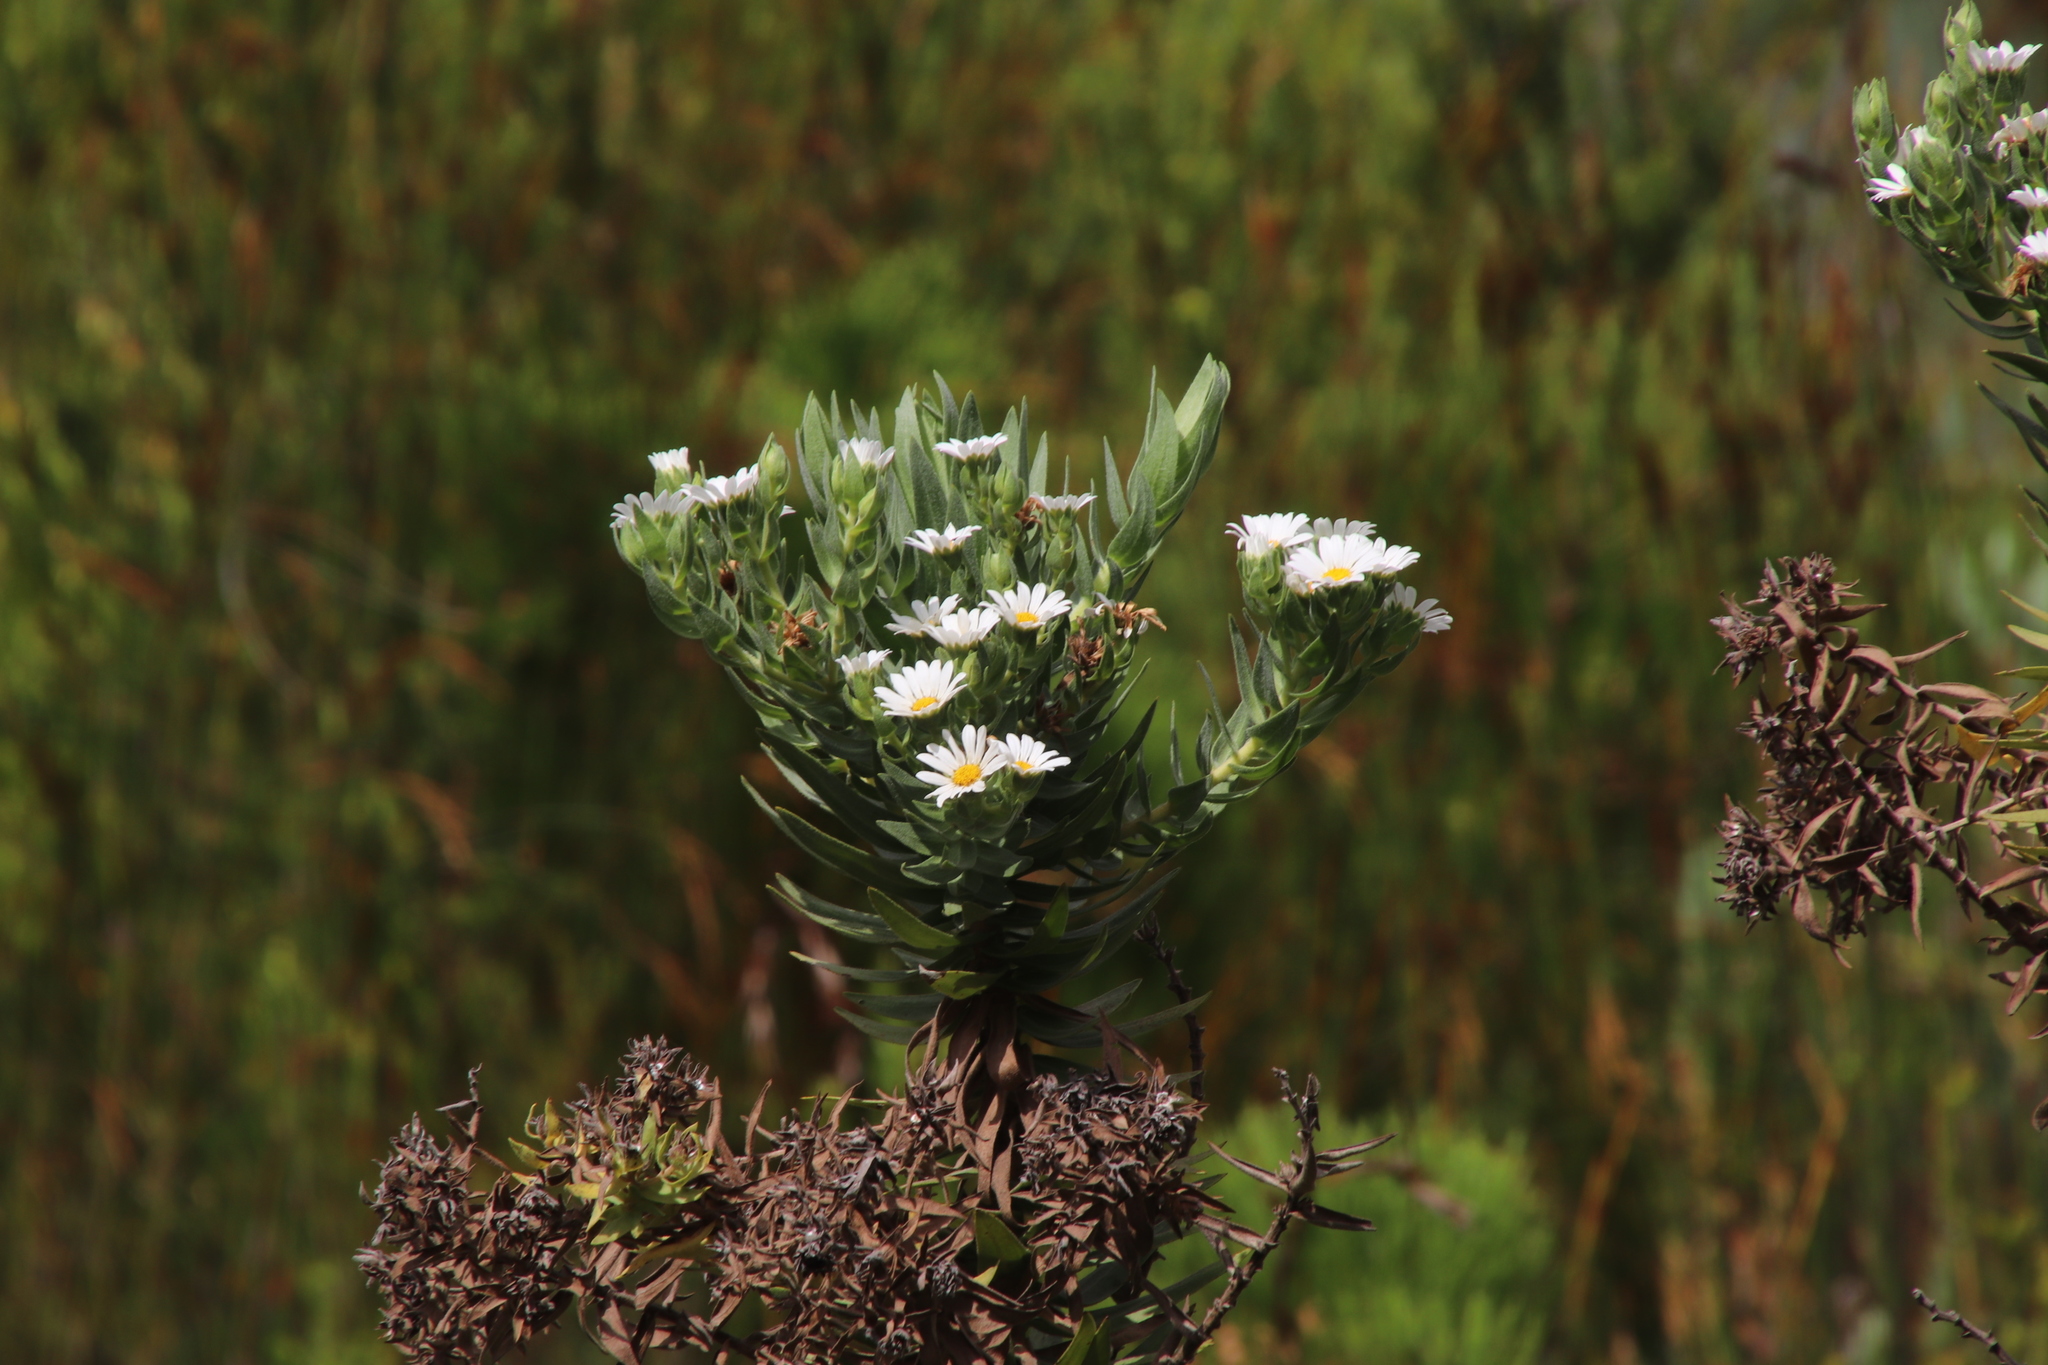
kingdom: Plantae
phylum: Tracheophyta
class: Magnoliopsida
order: Asterales
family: Asteraceae
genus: Osmitopsis
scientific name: Osmitopsis asteriscoides
